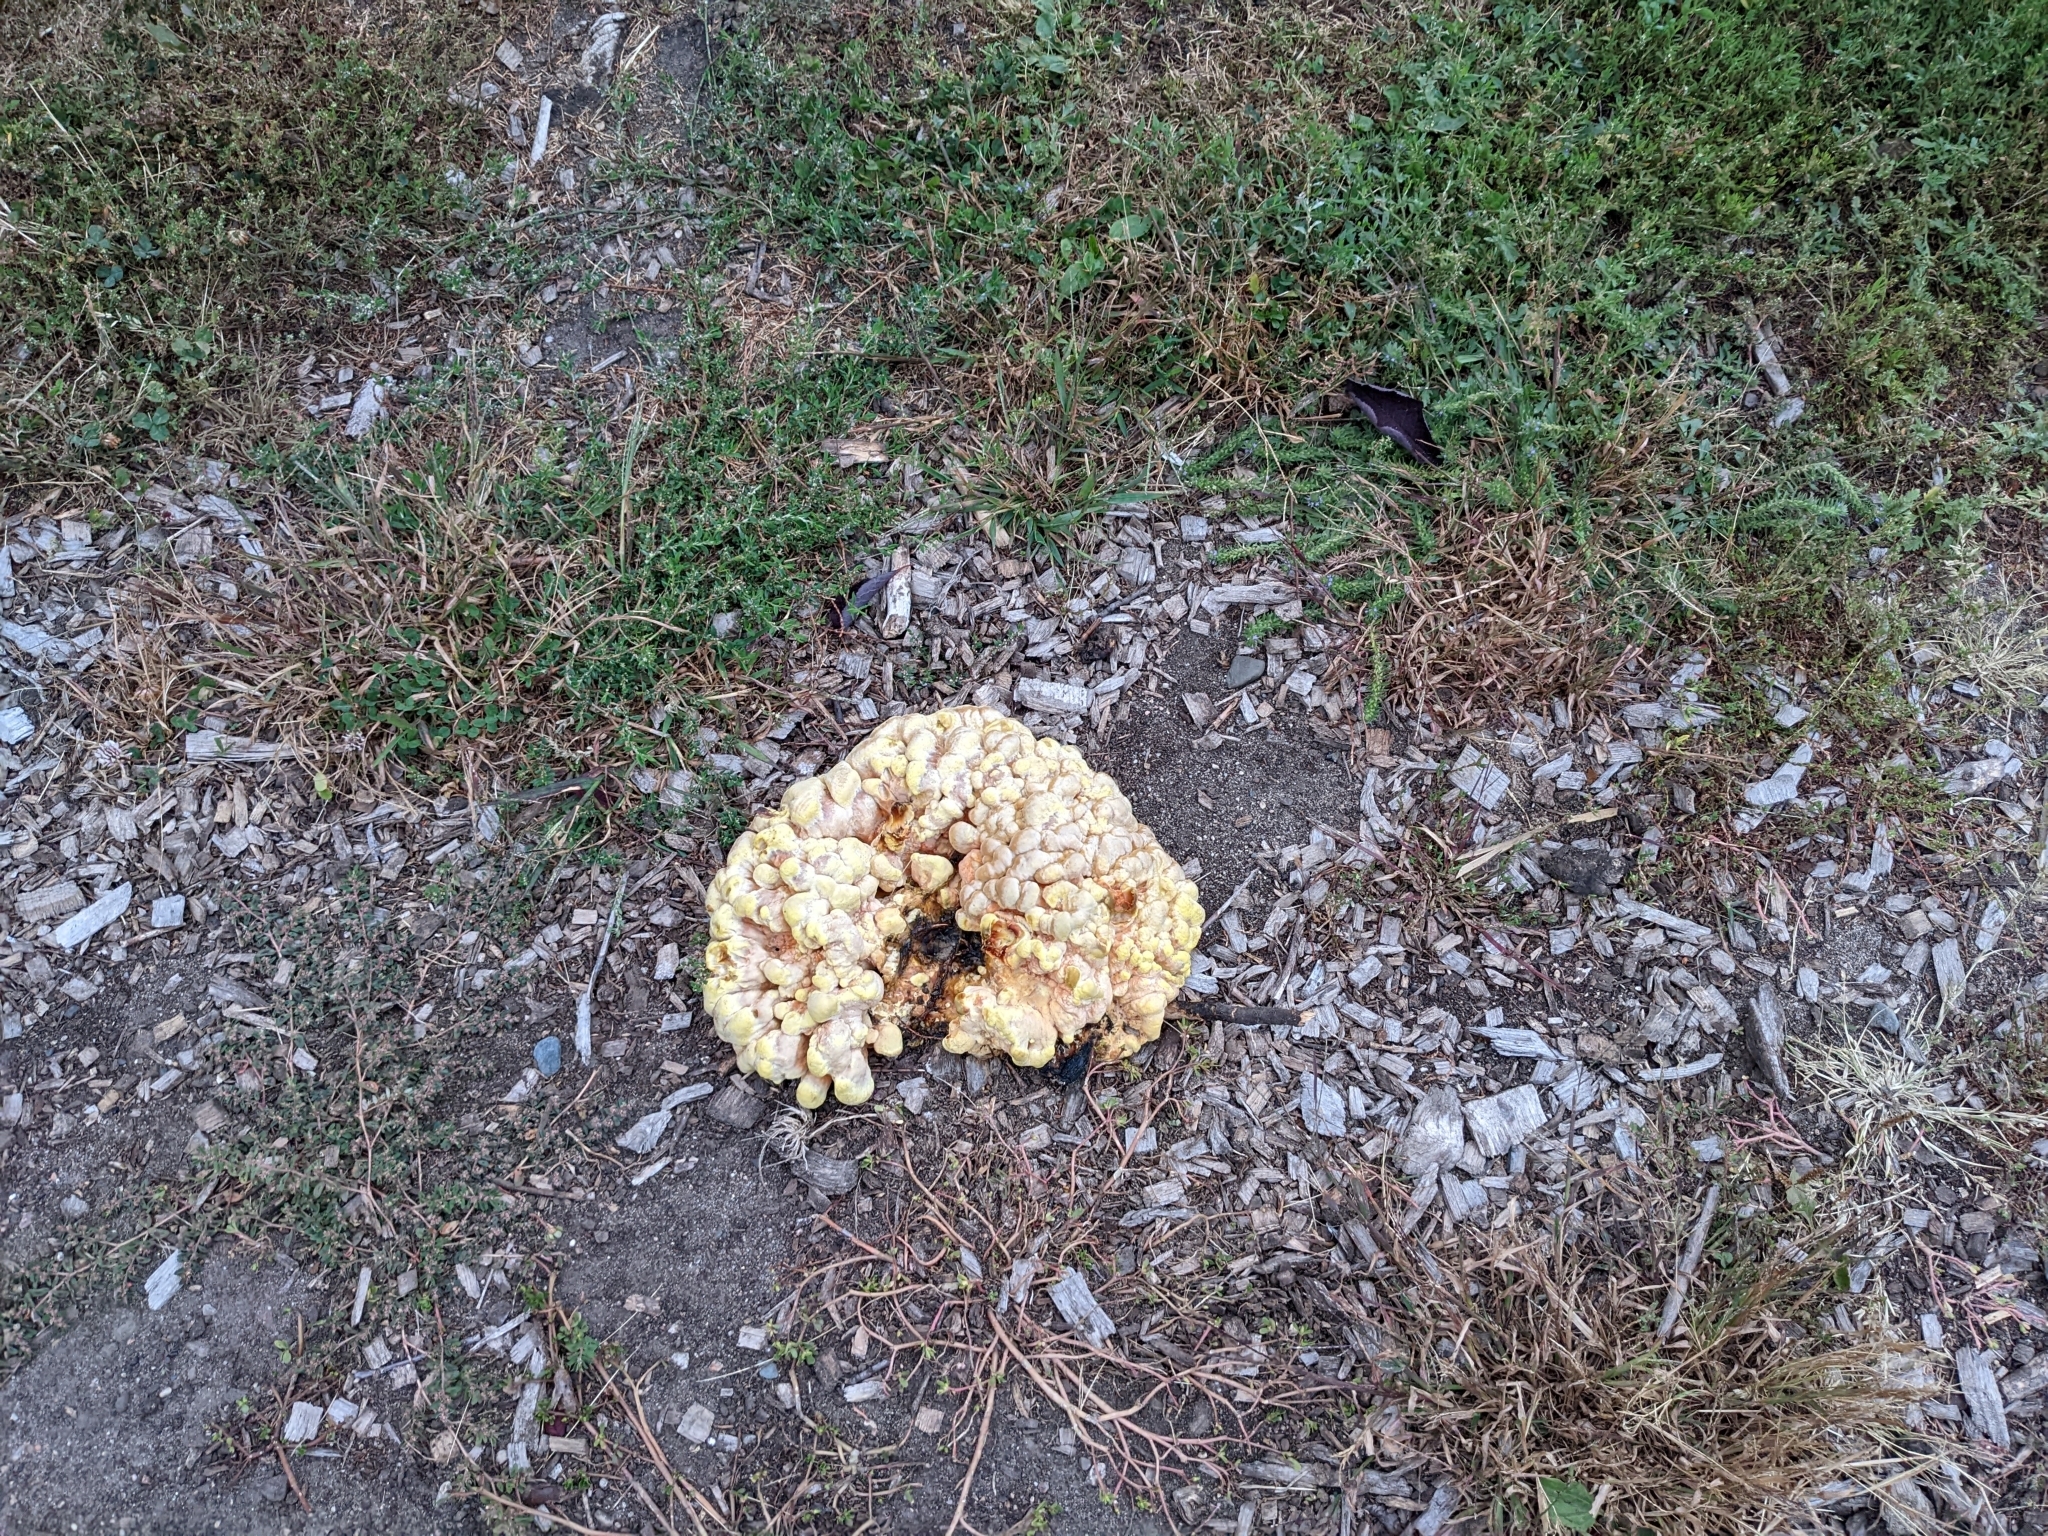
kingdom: Fungi
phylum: Basidiomycota
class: Agaricomycetes
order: Polyporales
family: Laetiporaceae
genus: Laetiporus
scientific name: Laetiporus
